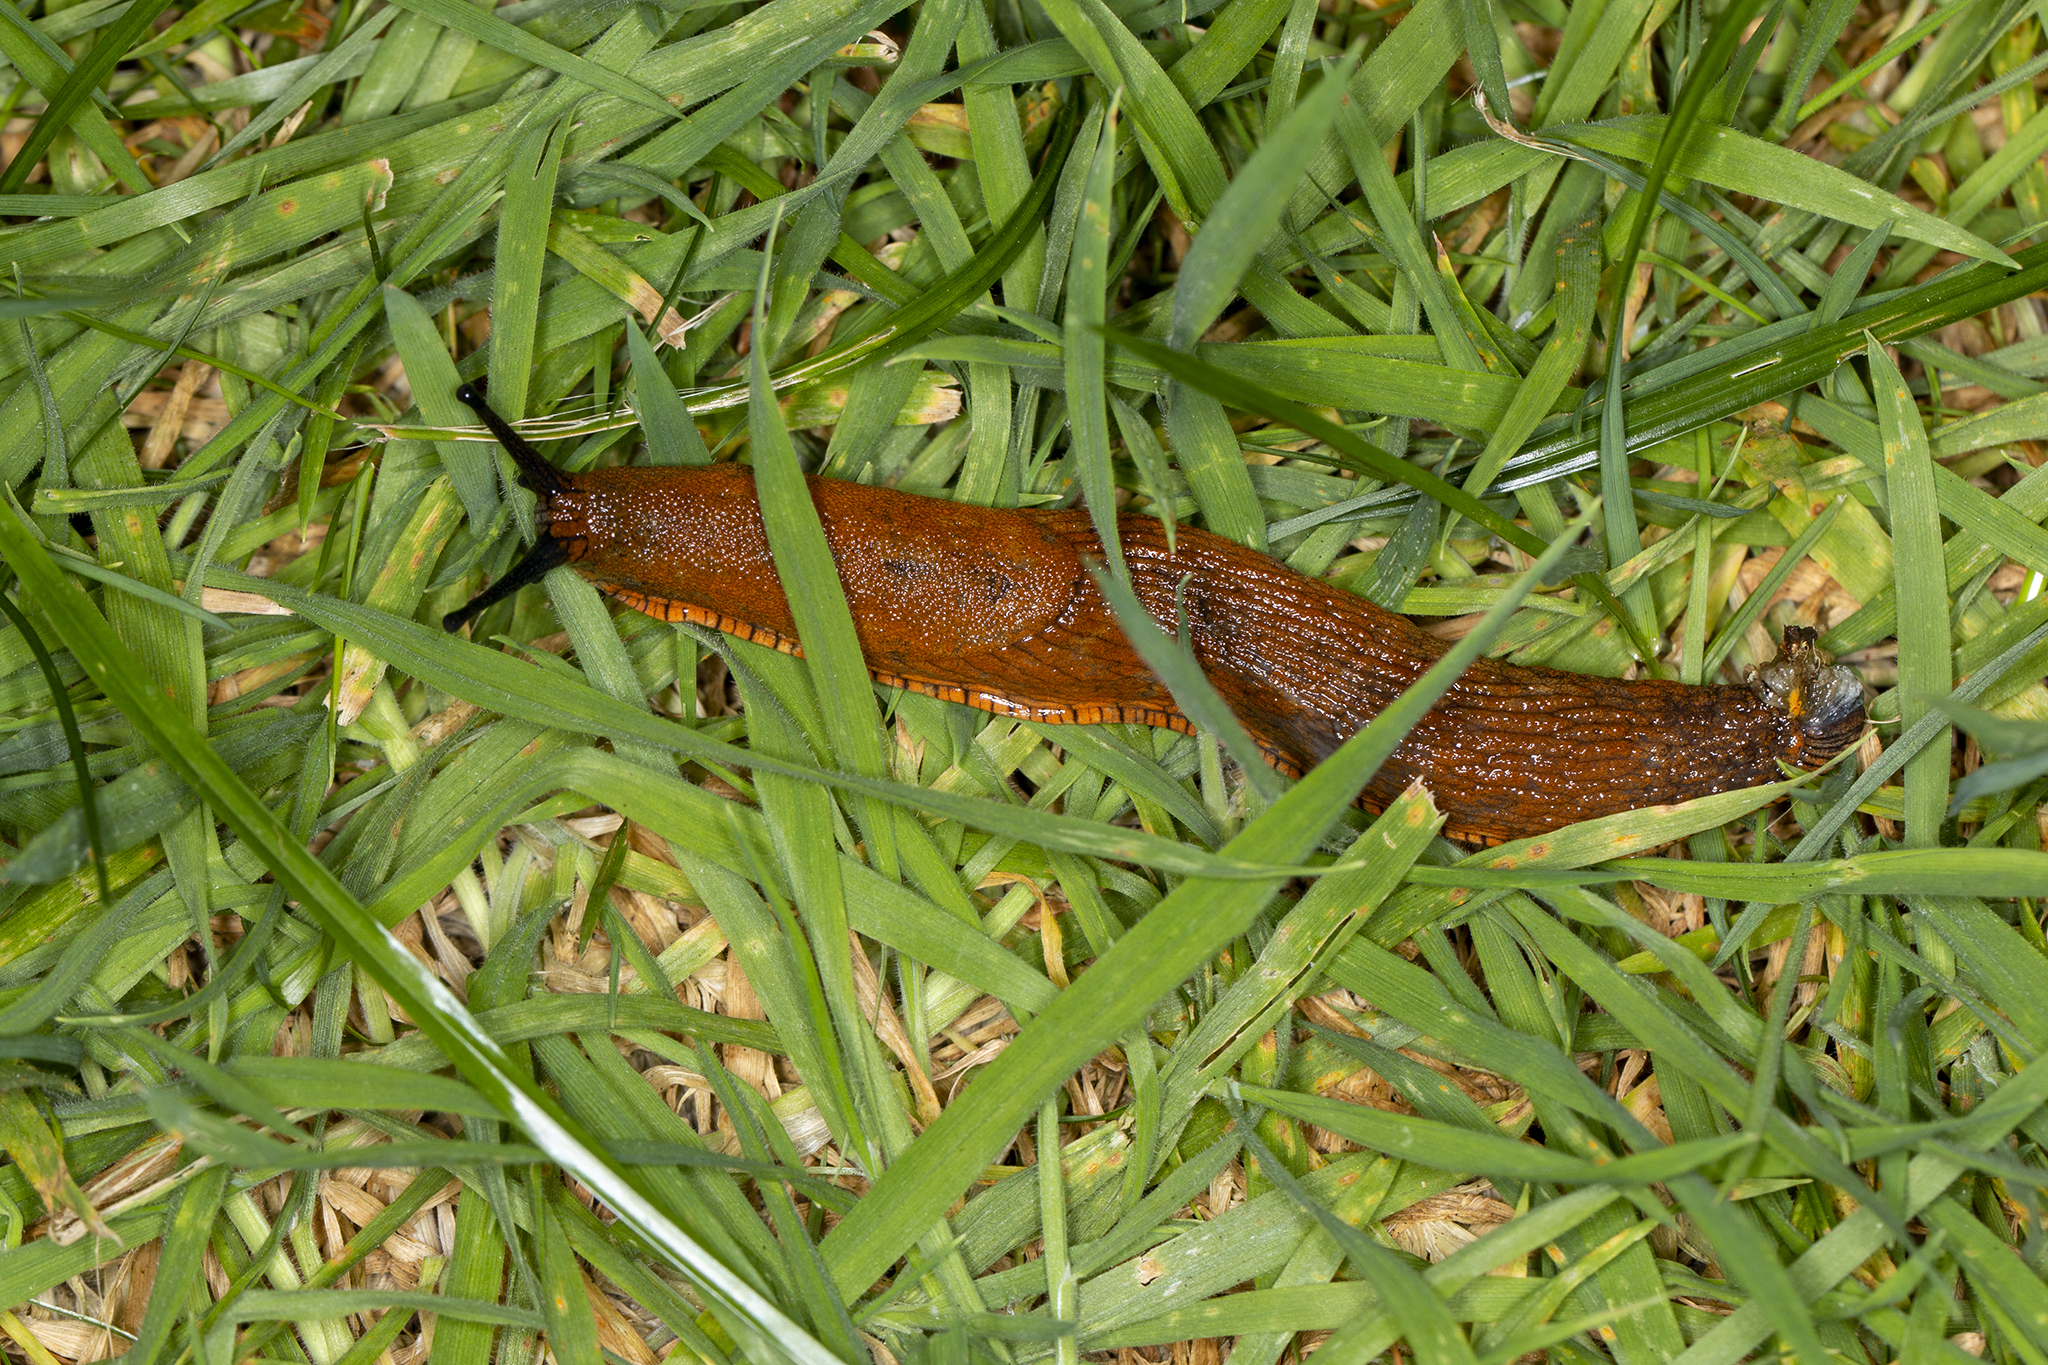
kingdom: Animalia
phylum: Mollusca
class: Gastropoda
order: Stylommatophora
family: Arionidae
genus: Arion
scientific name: Arion vulgaris
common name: Lusitanian slug
